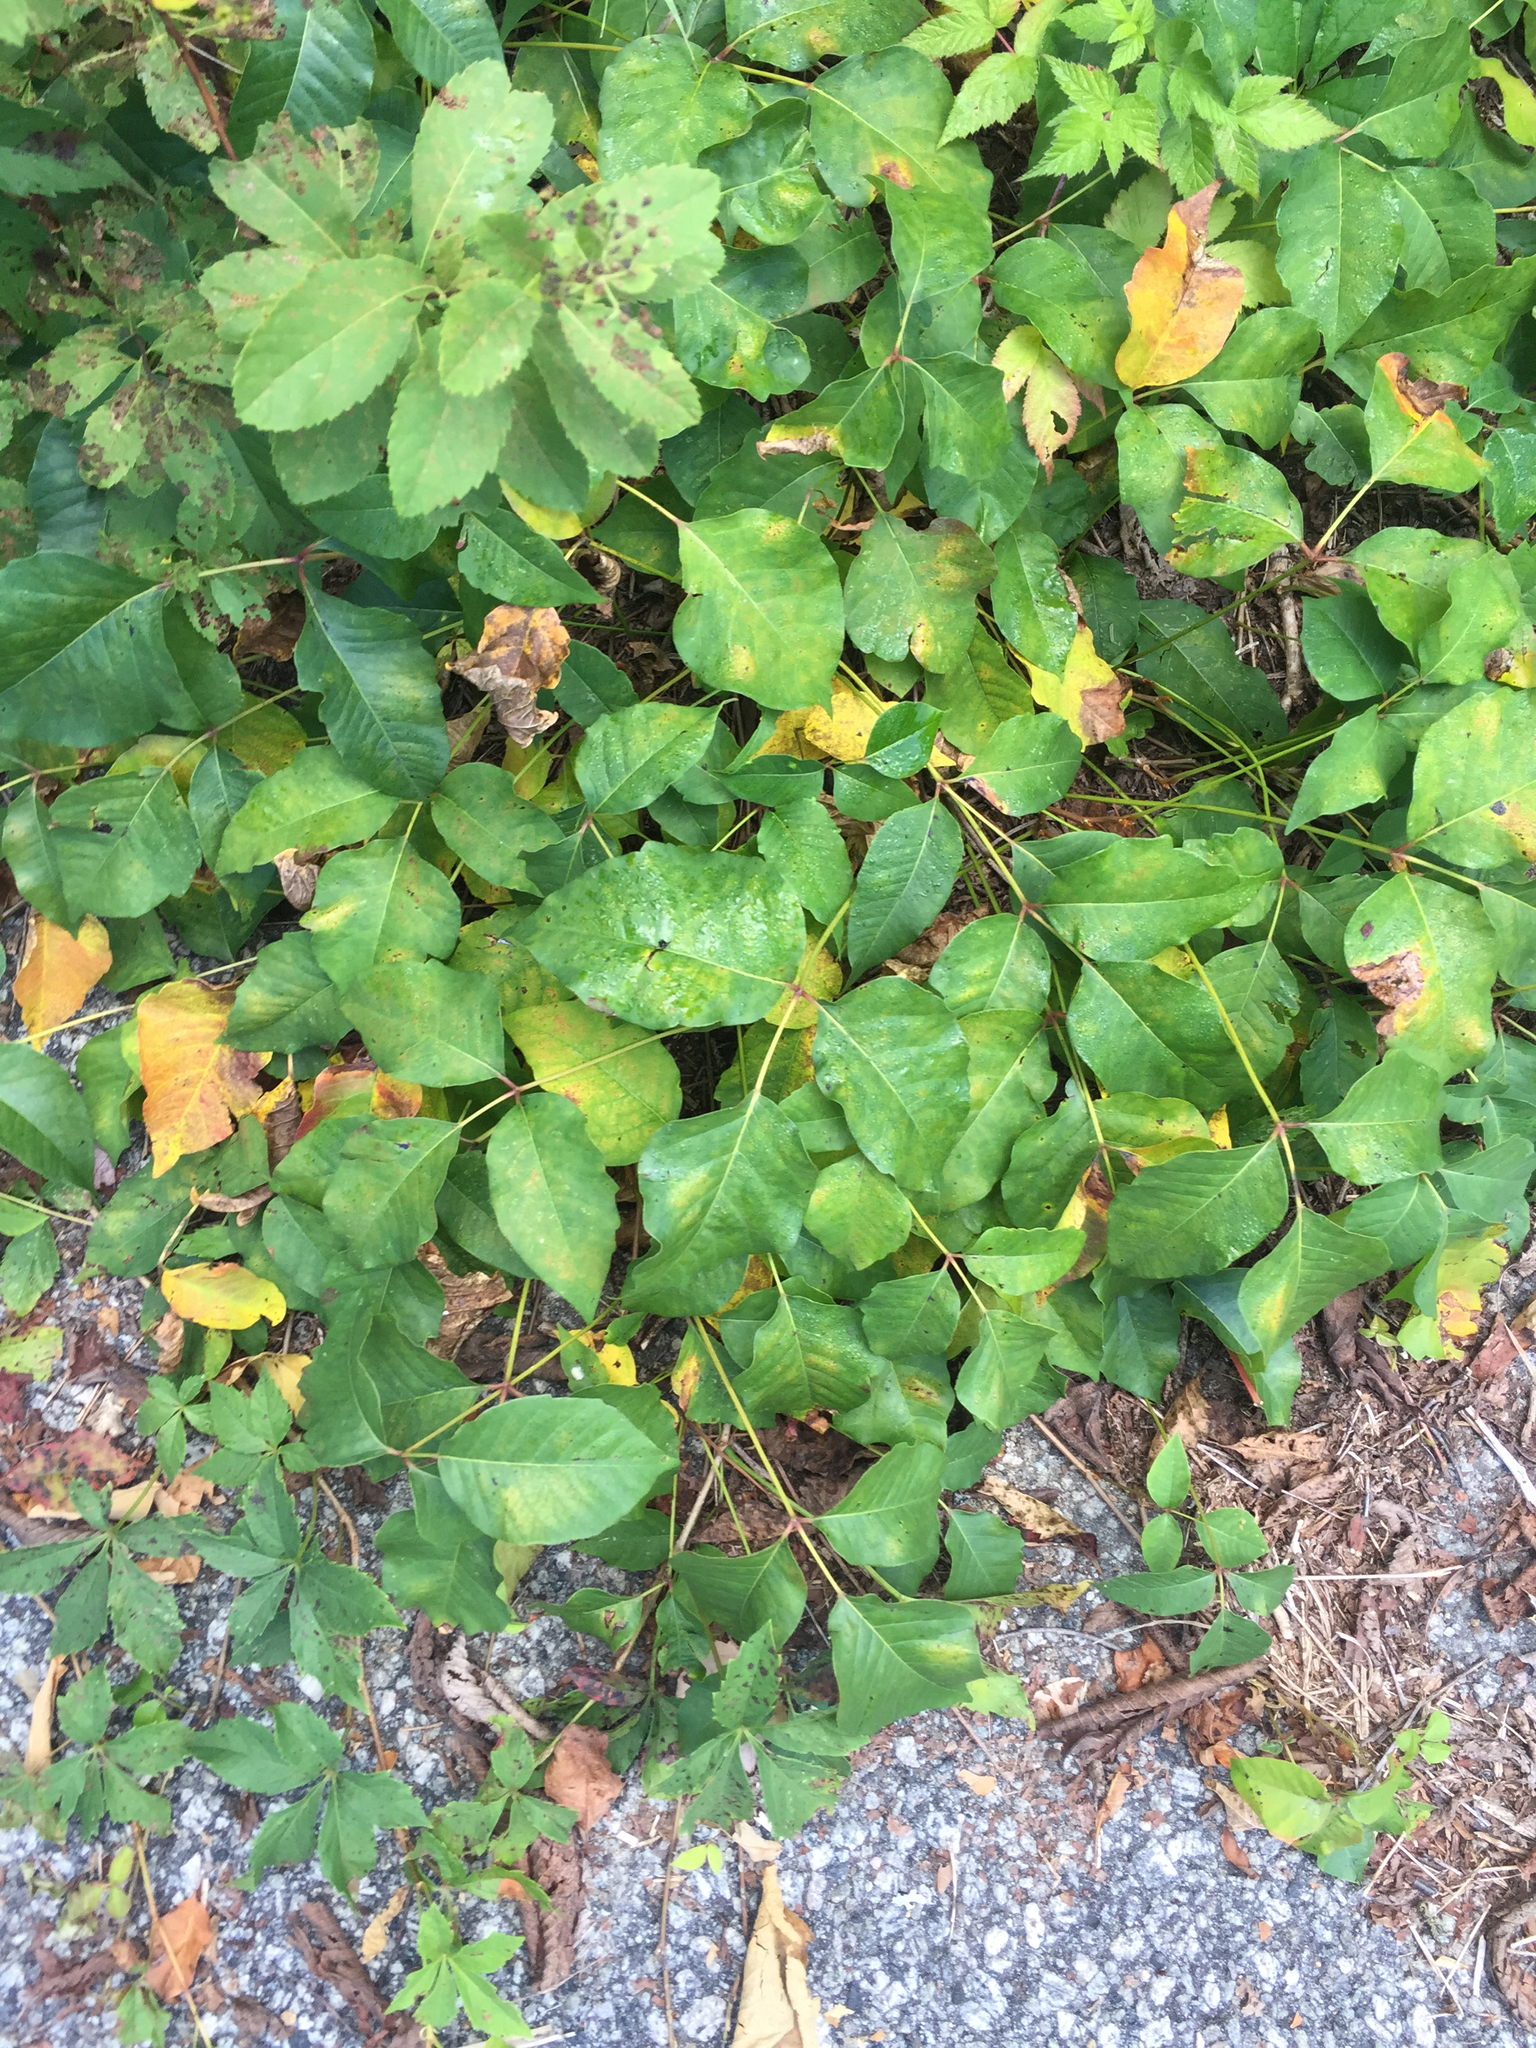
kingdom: Plantae
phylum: Tracheophyta
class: Magnoliopsida
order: Sapindales
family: Anacardiaceae
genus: Toxicodendron
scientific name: Toxicodendron radicans
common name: Poison ivy
